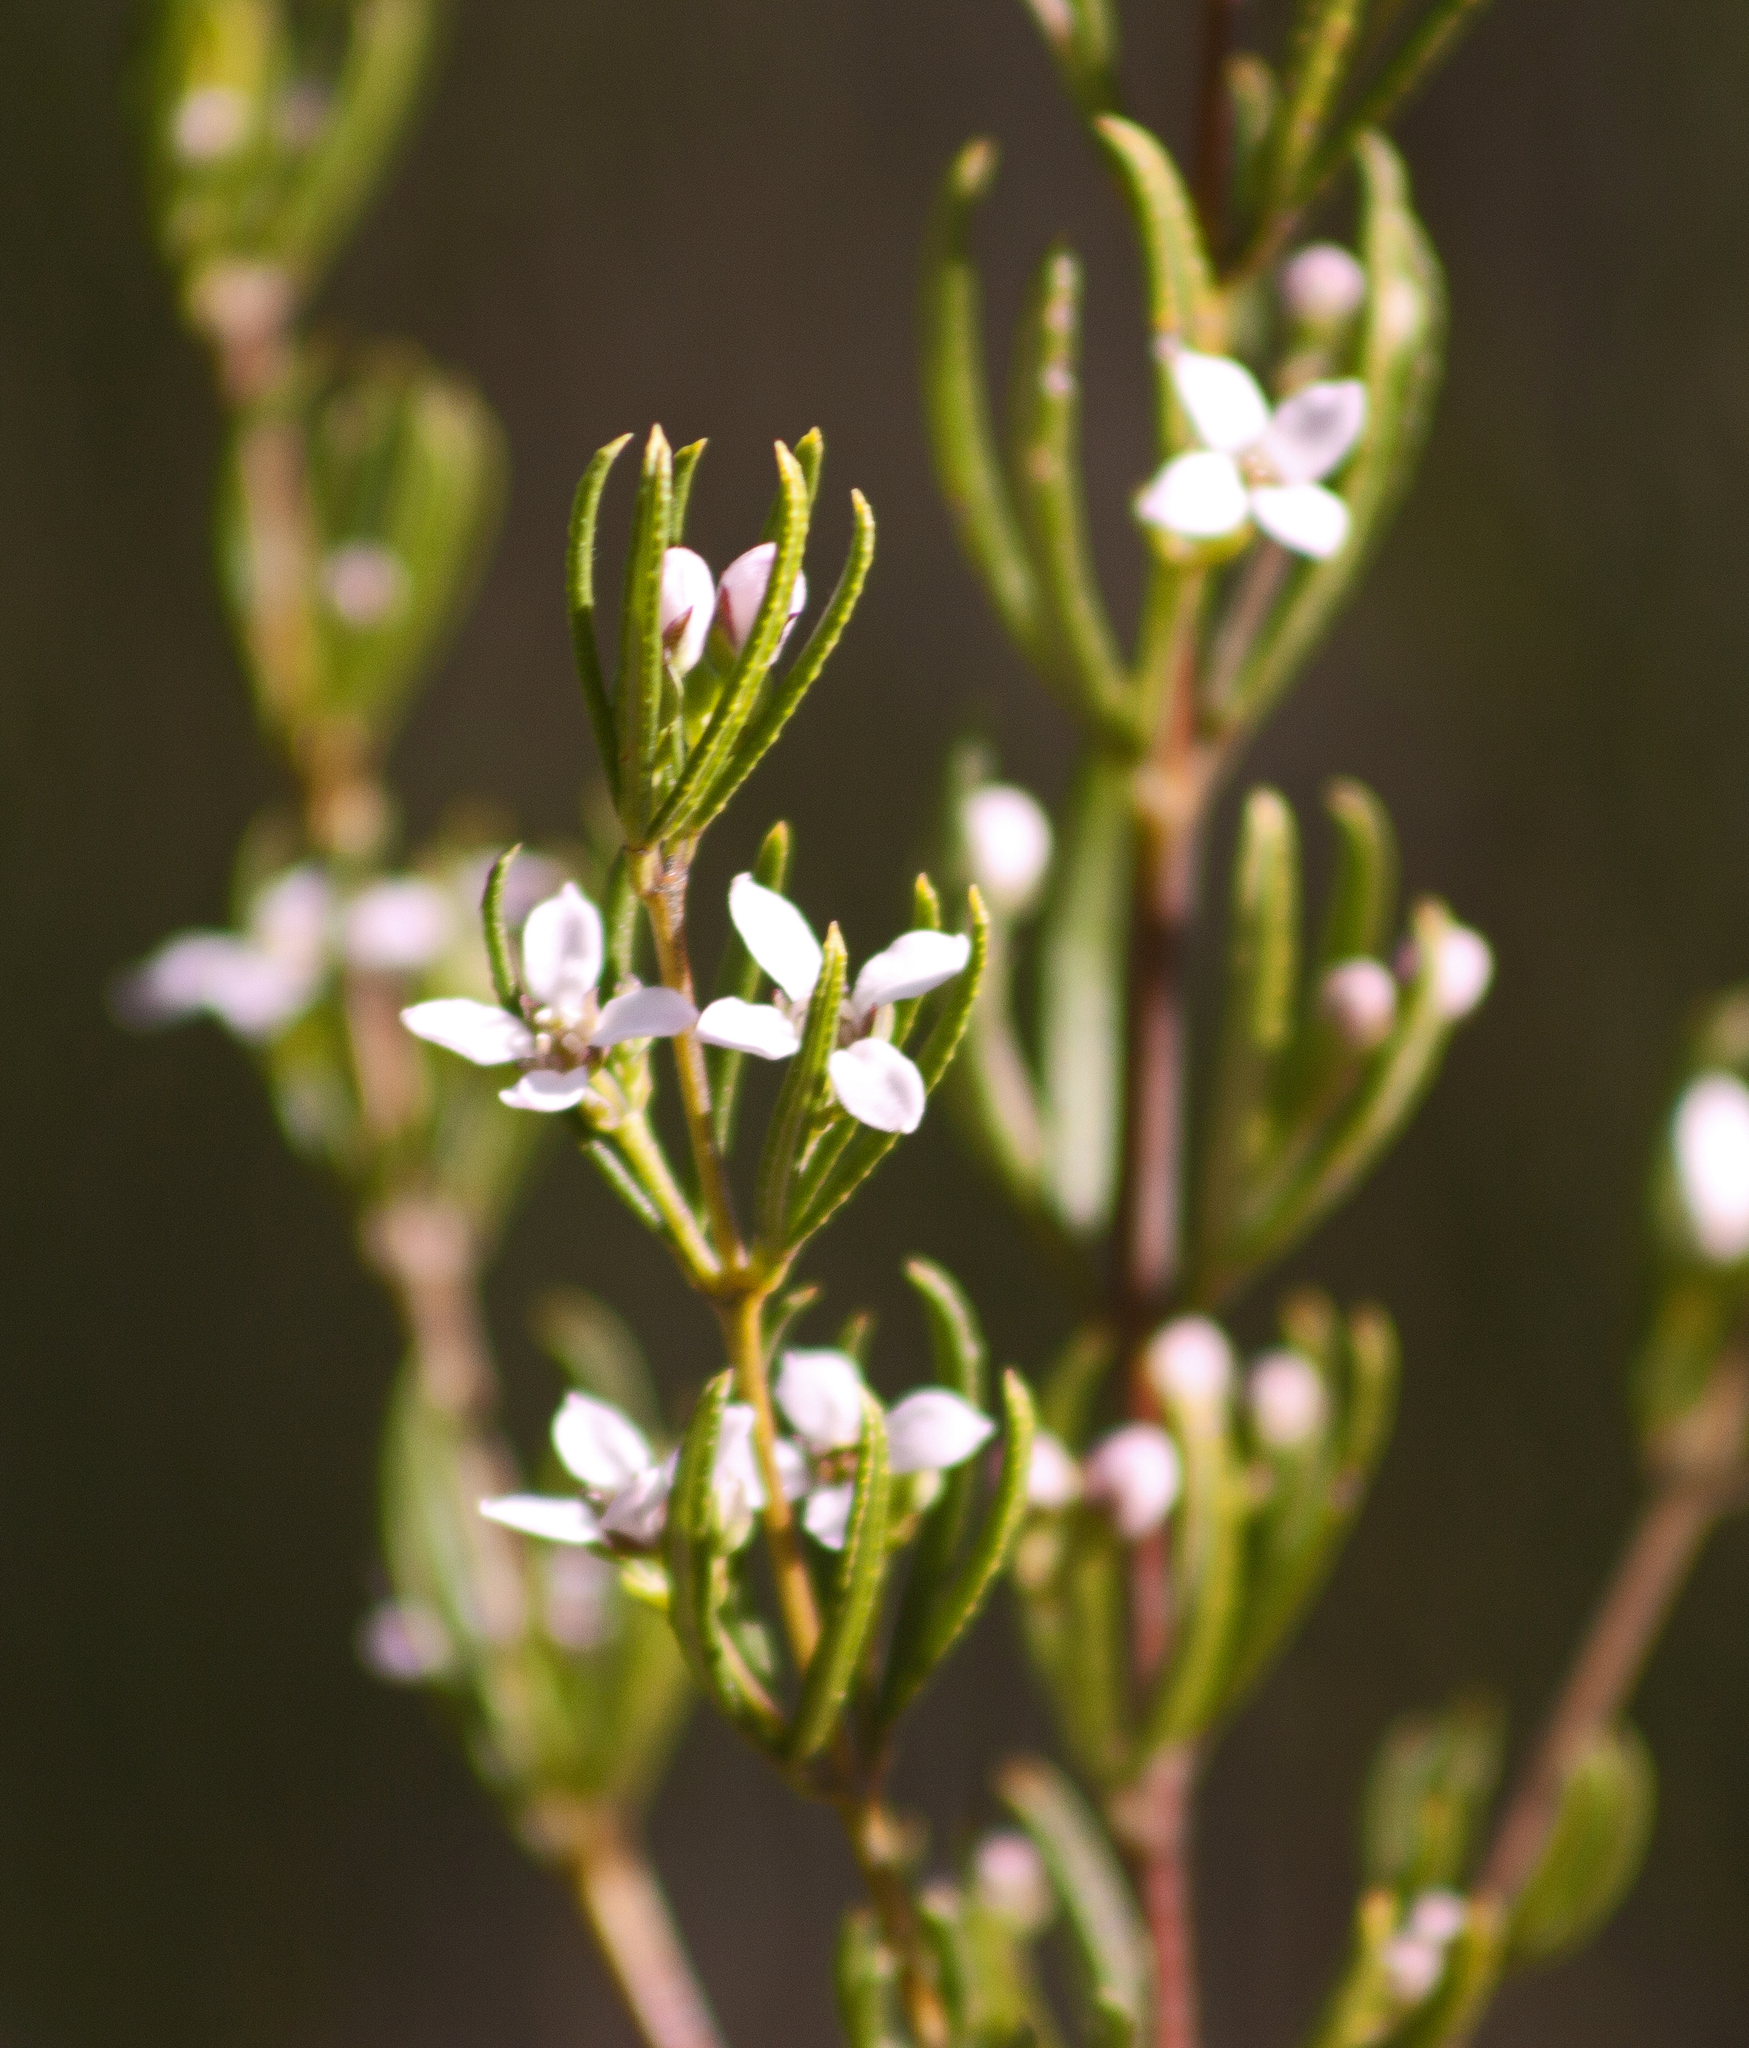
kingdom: Plantae
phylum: Tracheophyta
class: Magnoliopsida
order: Sapindales
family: Rutaceae
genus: Zieria
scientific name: Zieria laevigata
